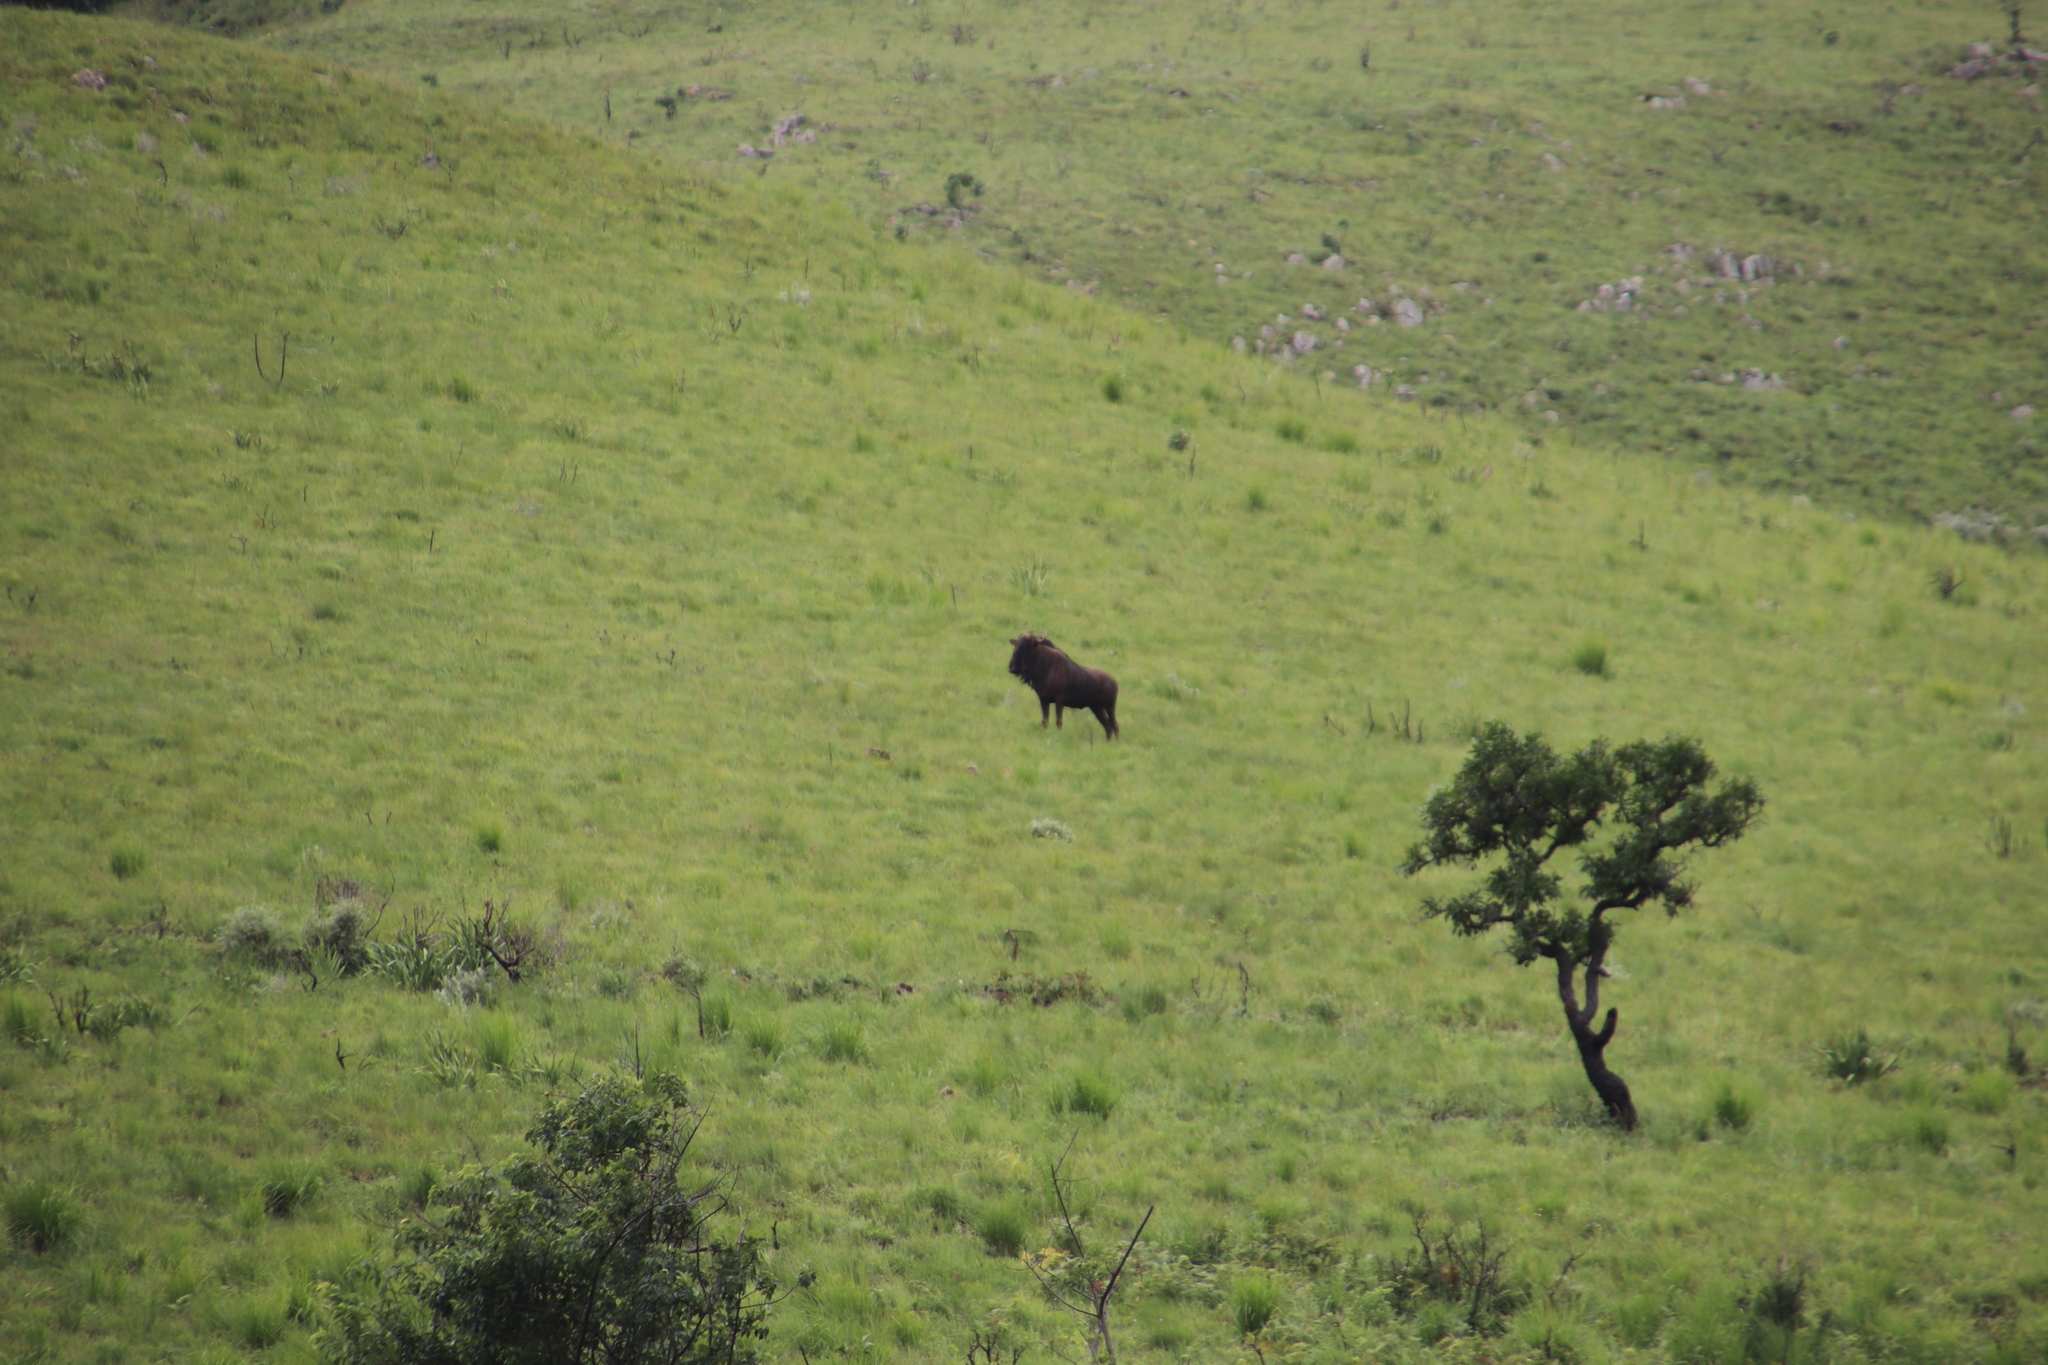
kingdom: Animalia
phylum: Chordata
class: Mammalia
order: Artiodactyla
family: Bovidae
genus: Connochaetes
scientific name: Connochaetes taurinus
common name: Blue wildebeest
